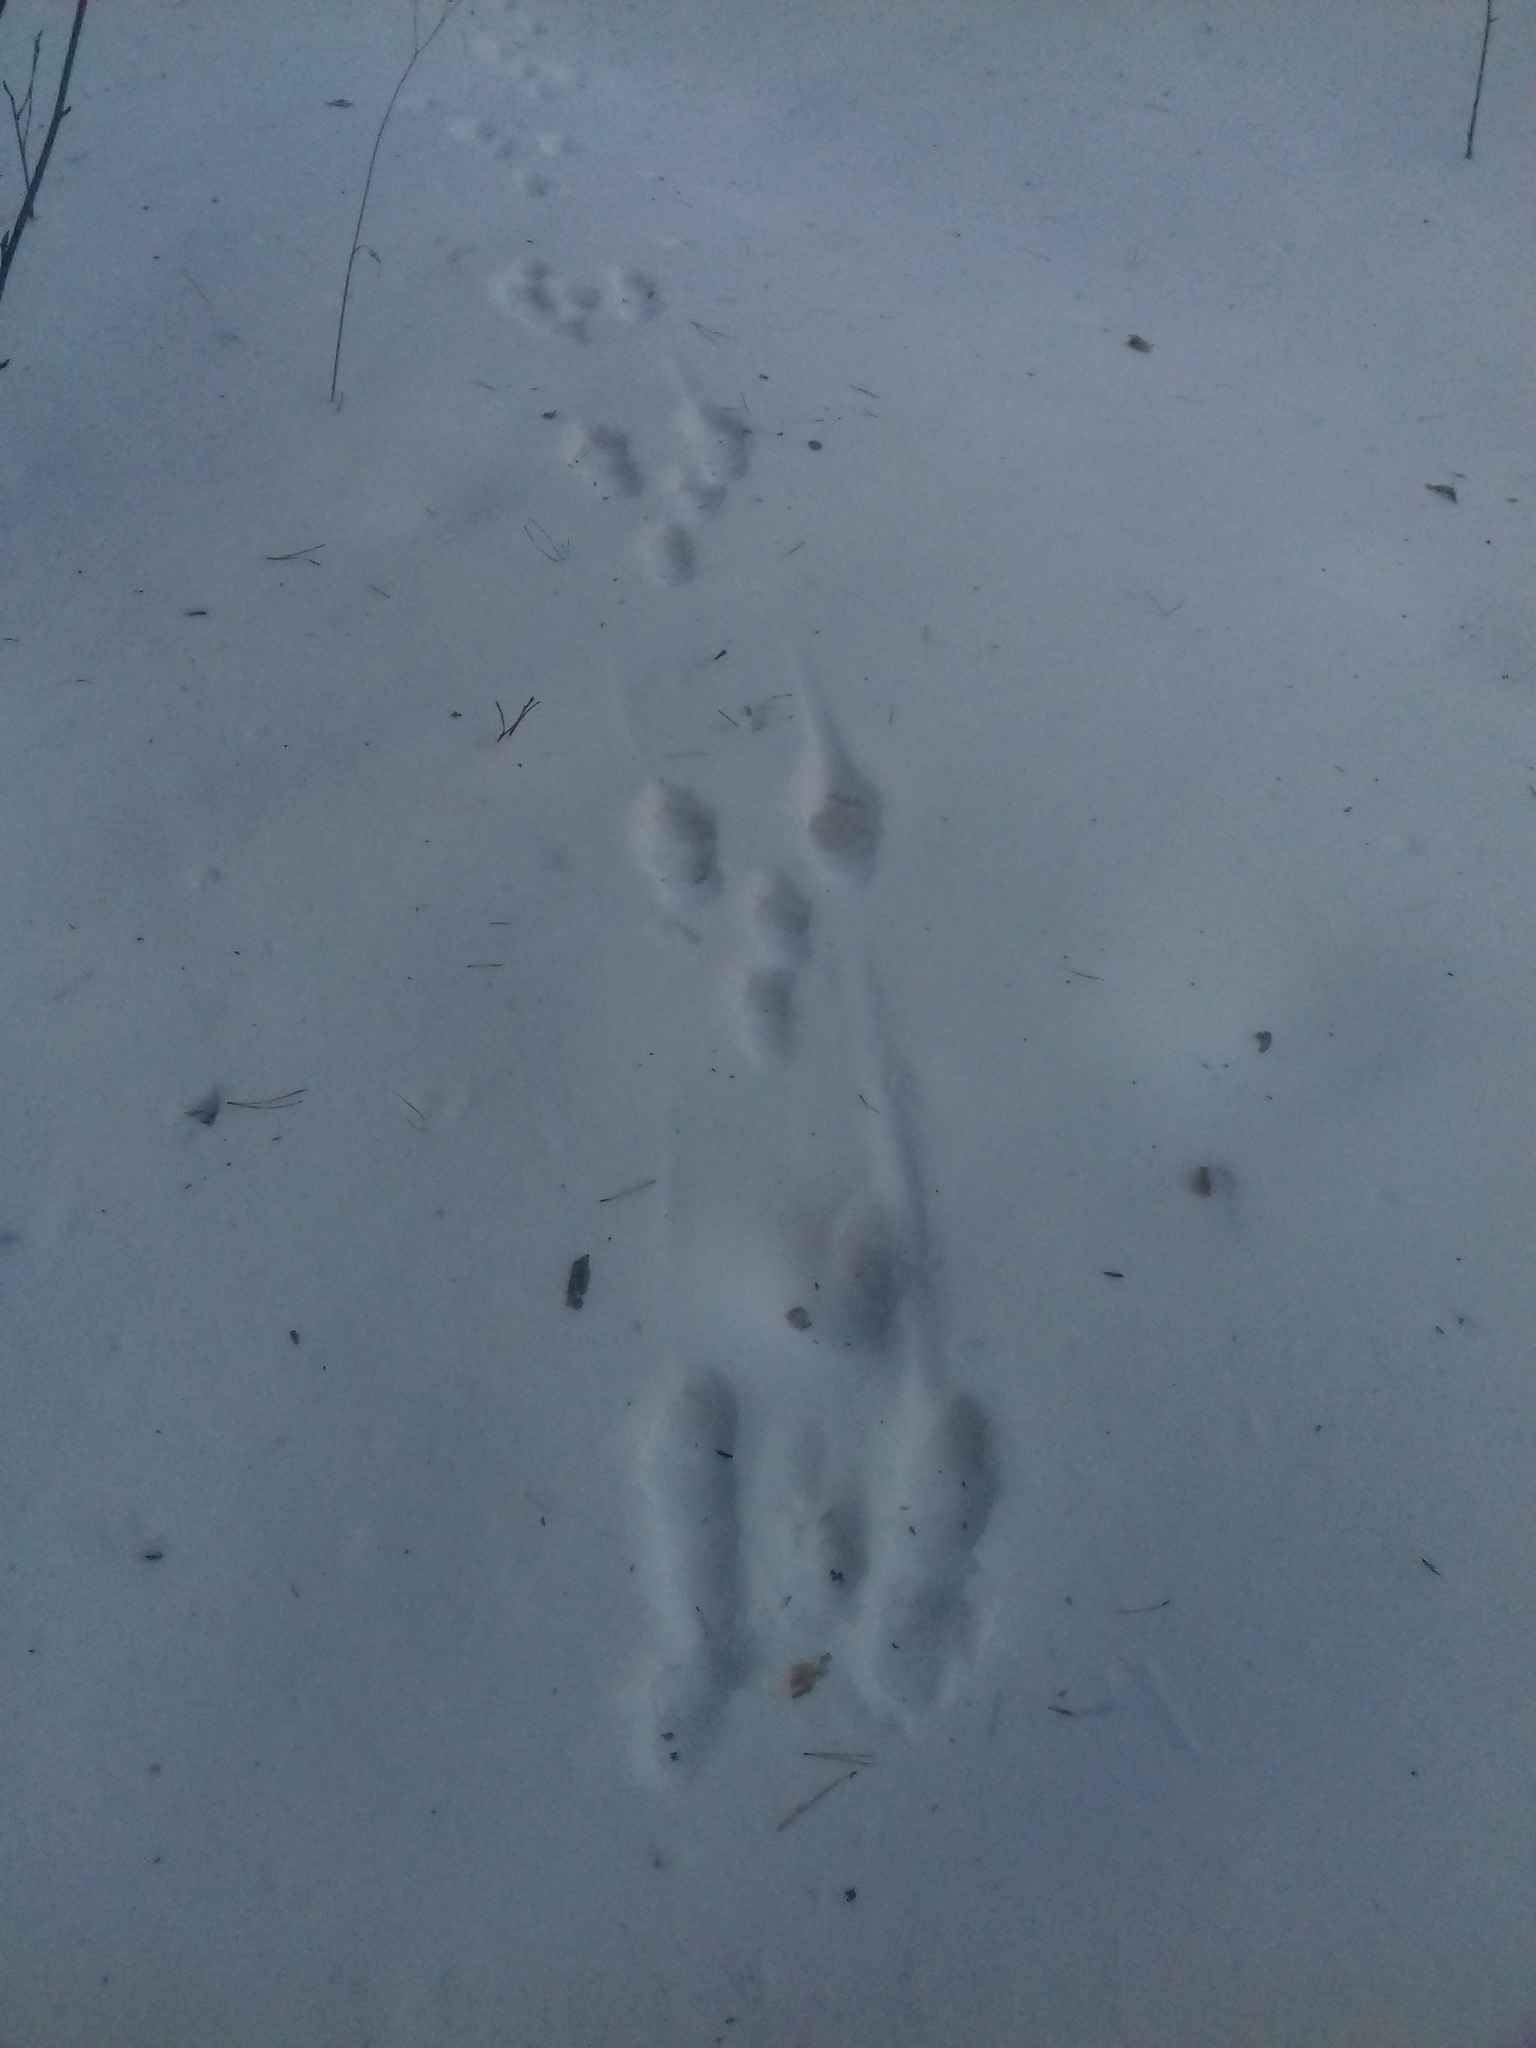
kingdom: Animalia
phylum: Chordata
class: Mammalia
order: Lagomorpha
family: Leporidae
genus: Lepus
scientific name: Lepus timidus
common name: Mountain hare
